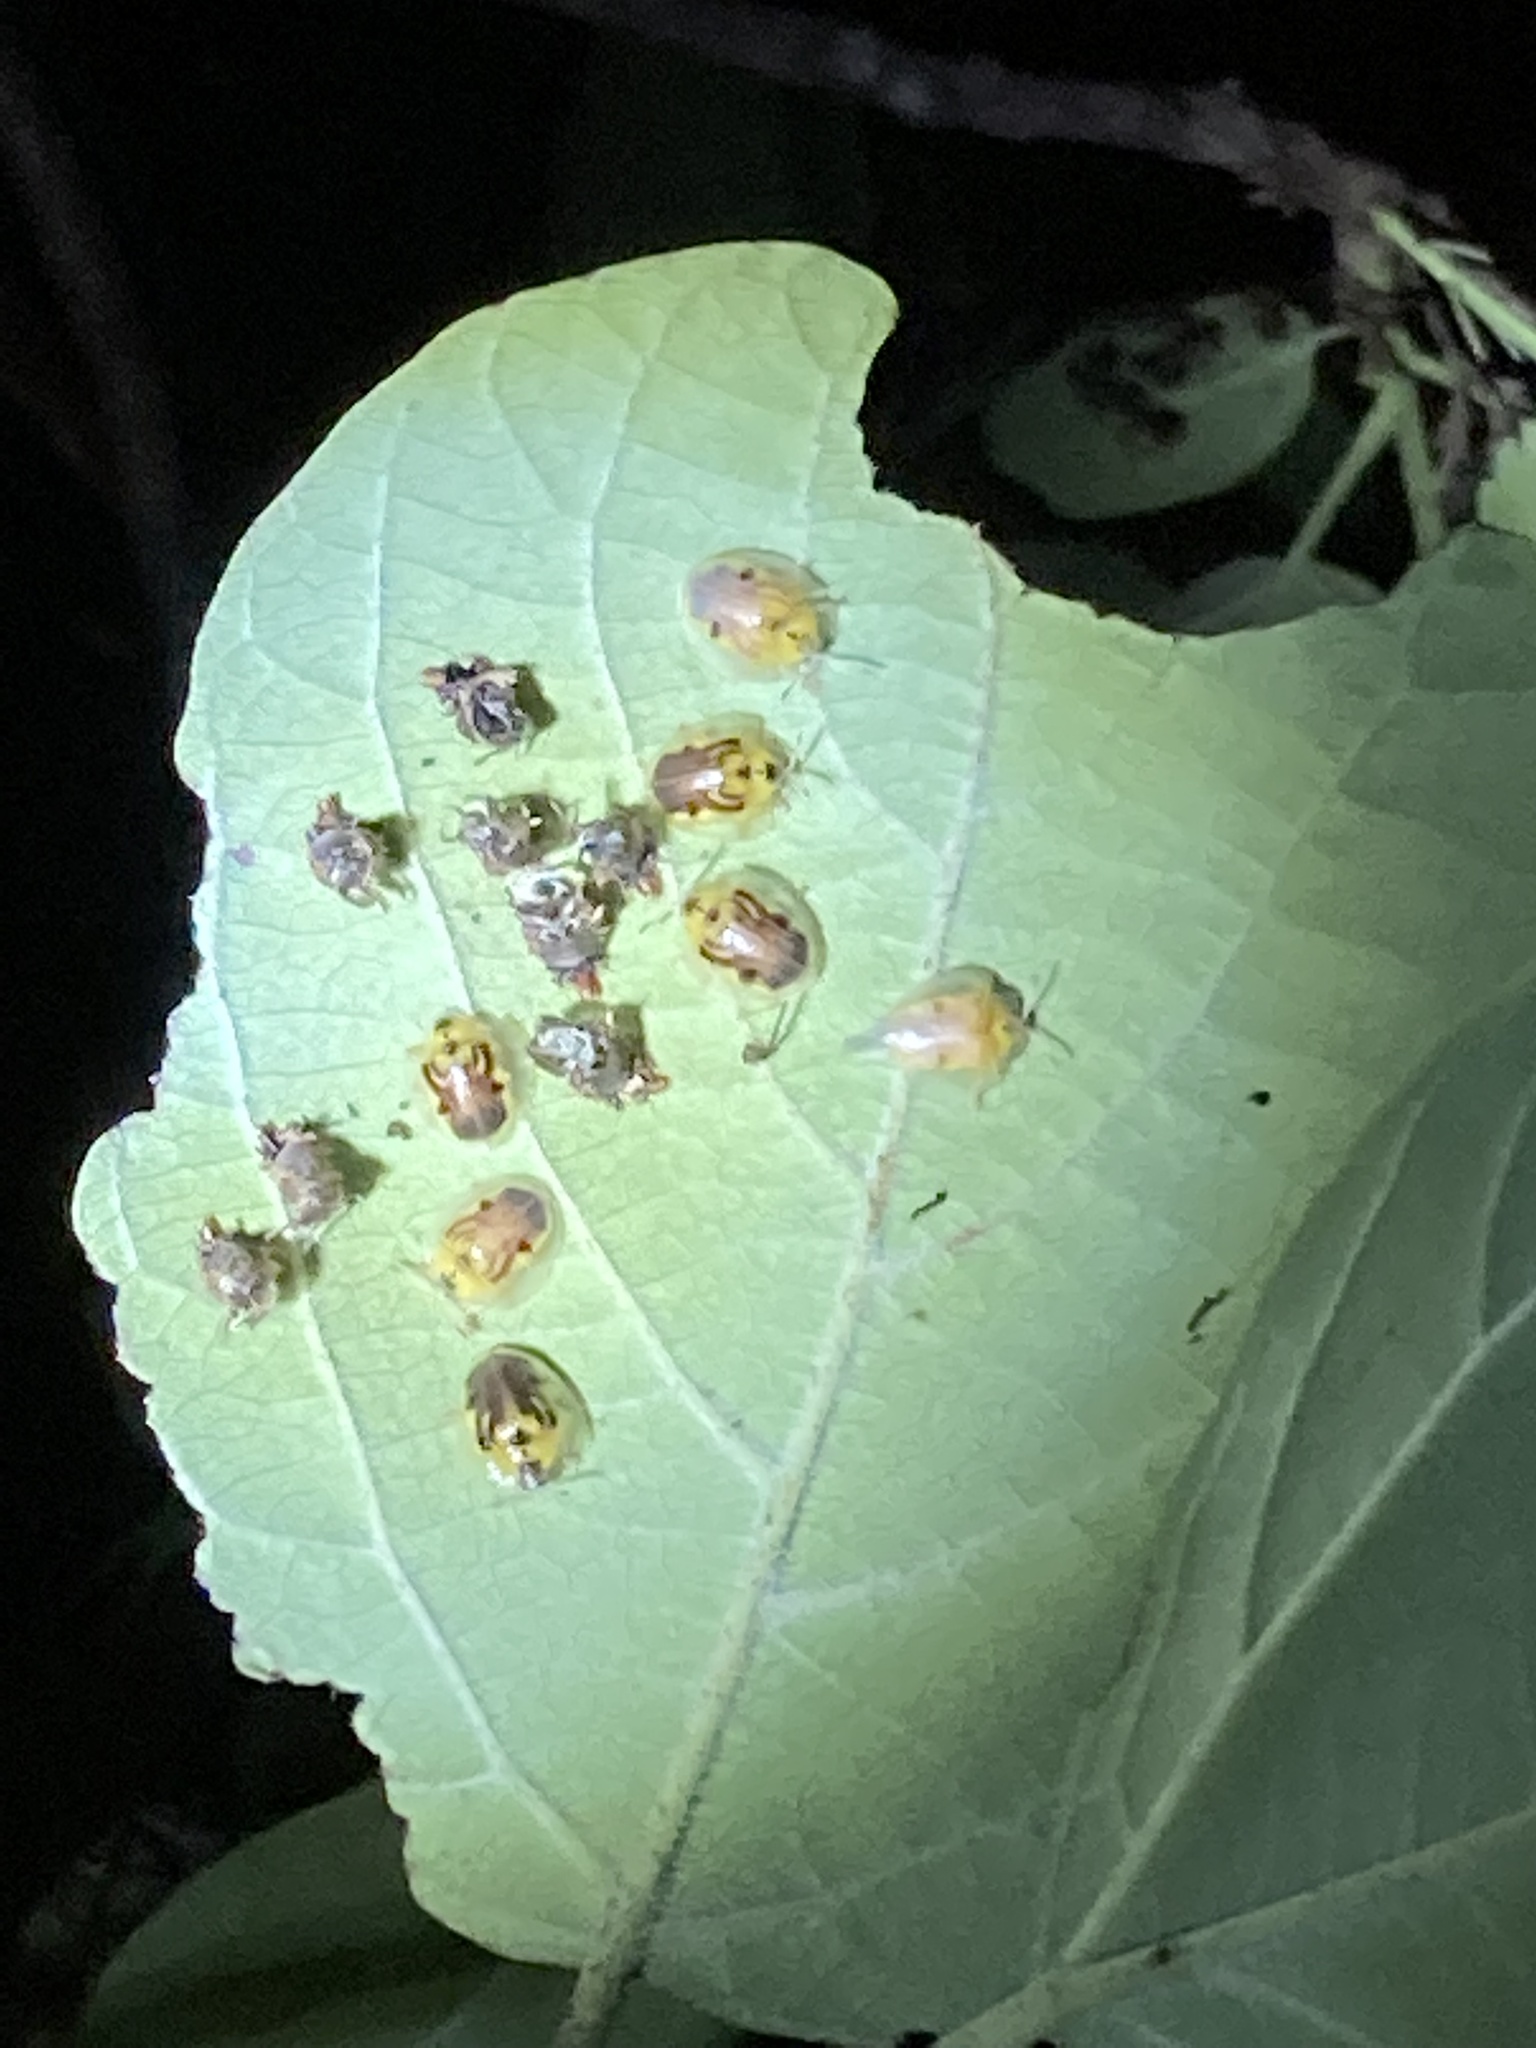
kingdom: Animalia
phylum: Arthropoda
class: Insecta
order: Coleoptera
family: Chrysomelidae
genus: Eurypepla
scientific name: Eurypepla calochroma
